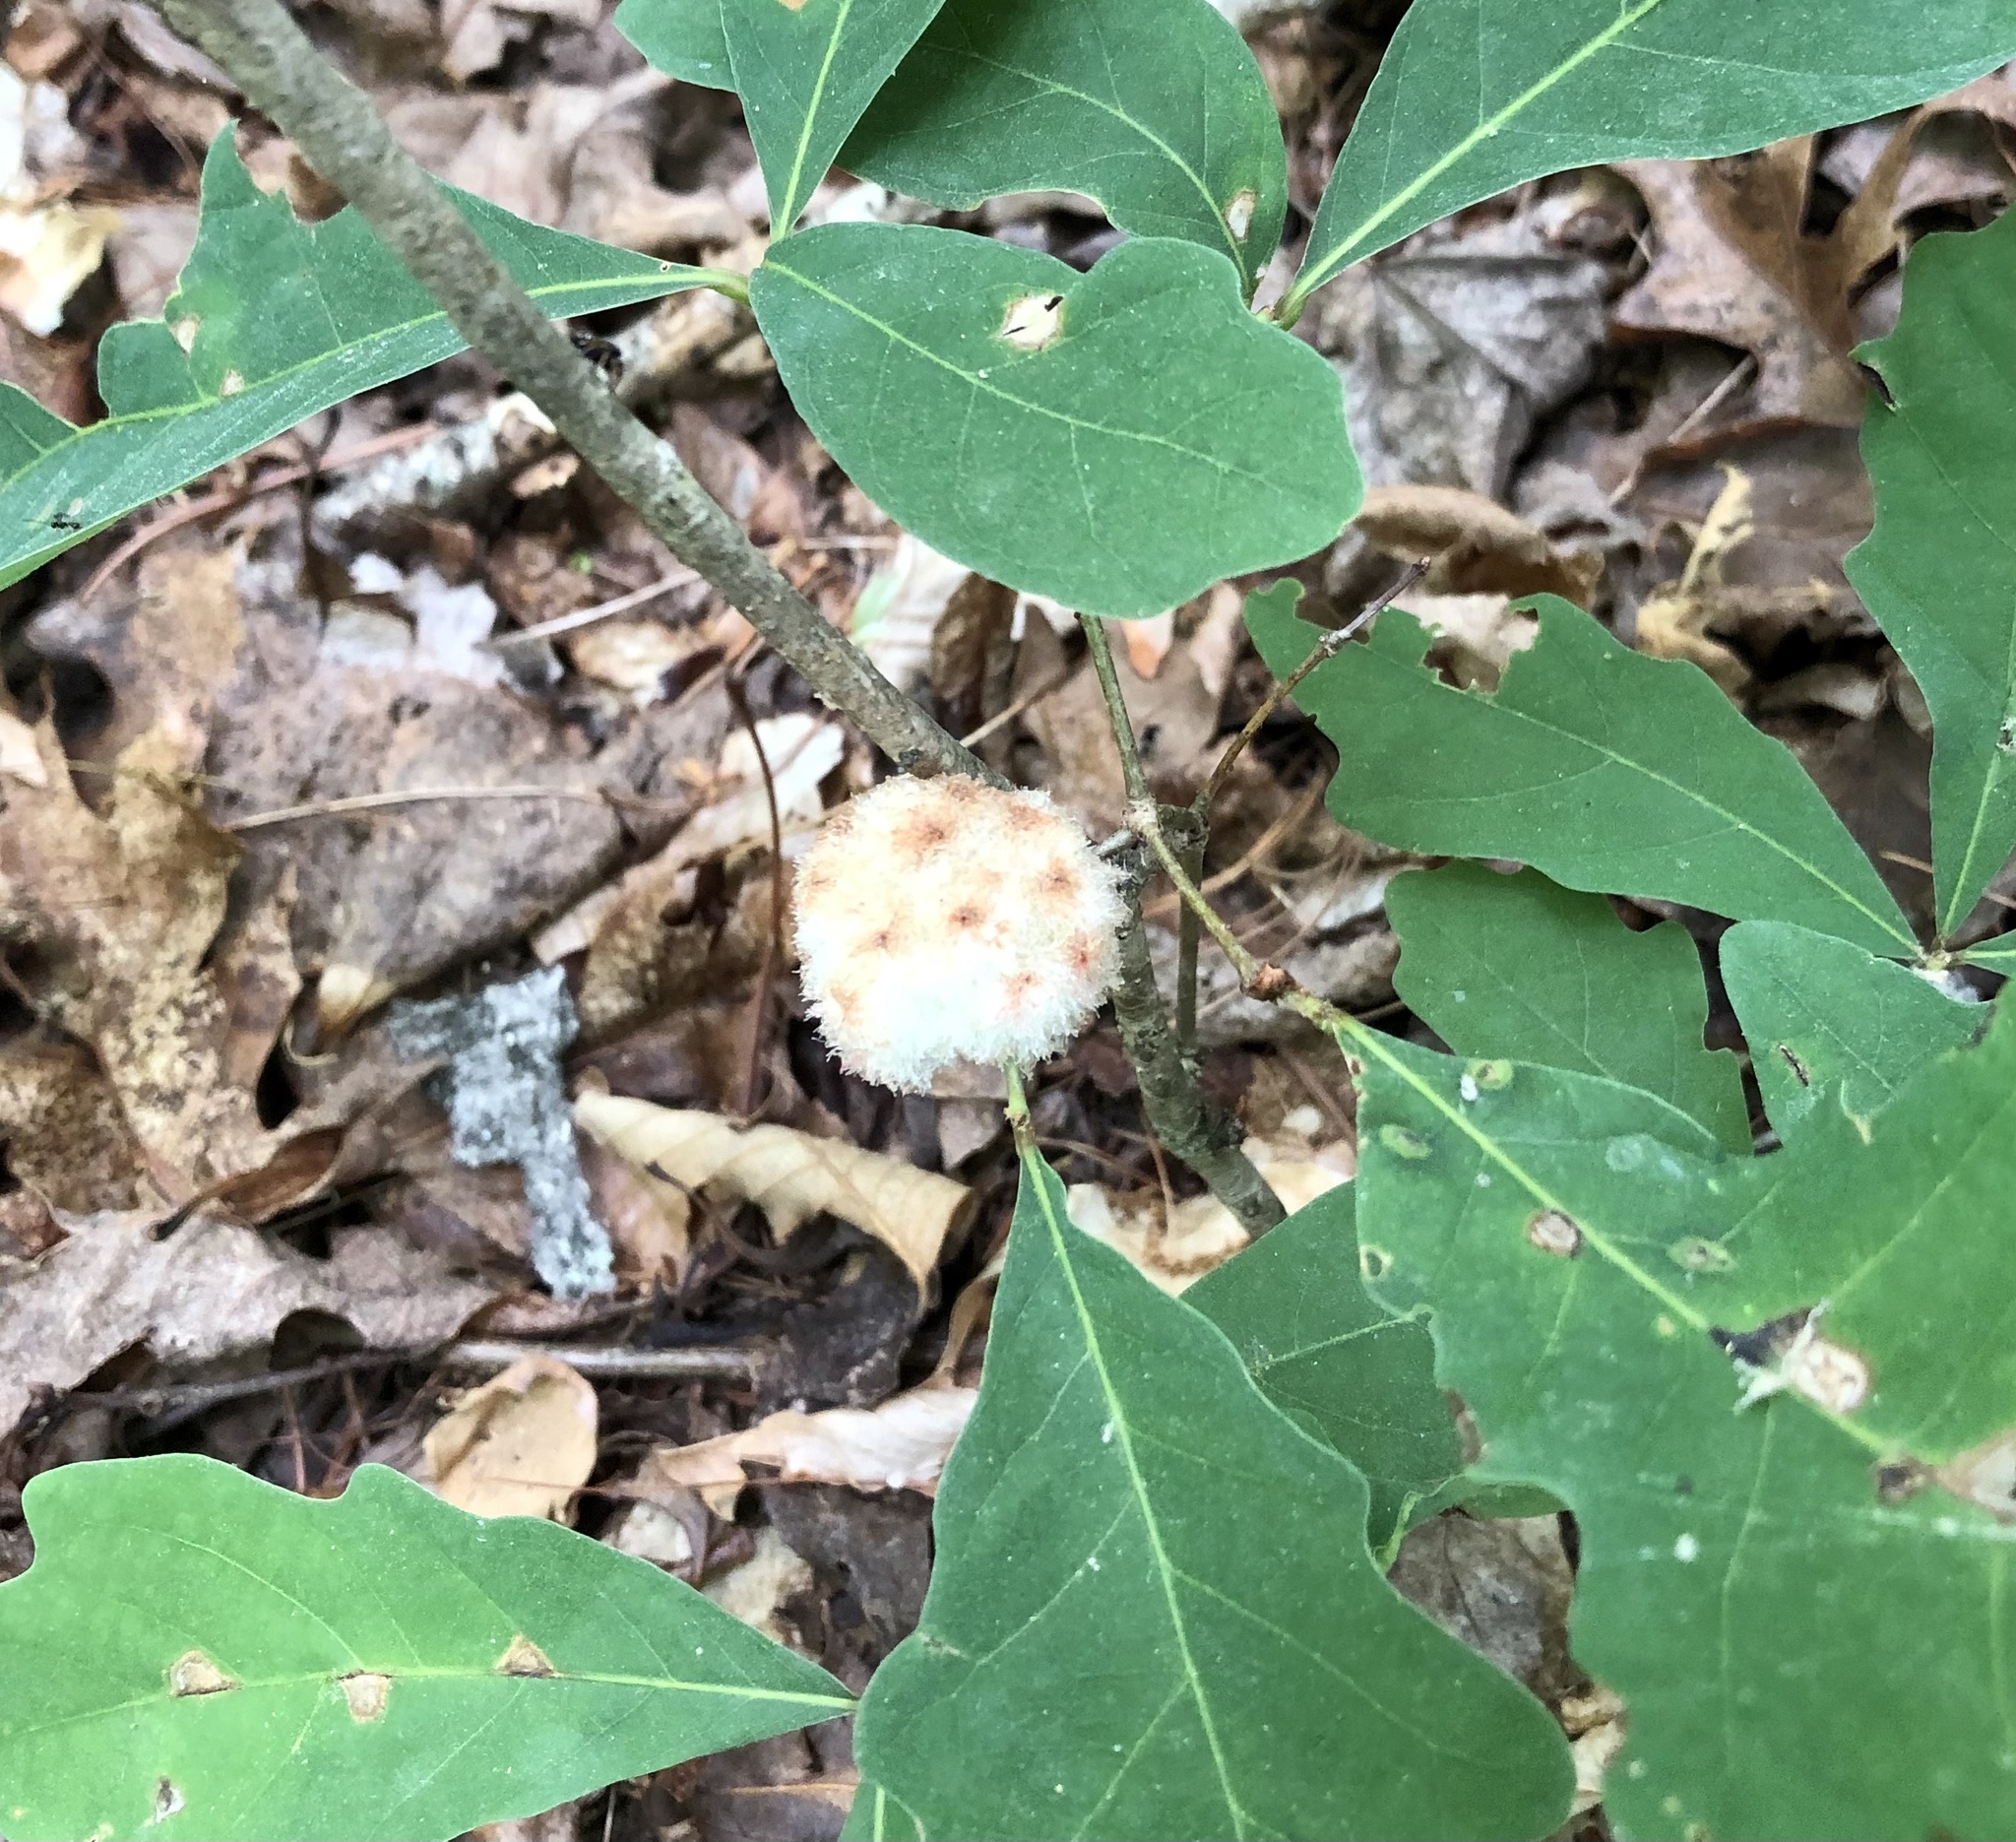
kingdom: Animalia
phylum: Arthropoda
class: Insecta
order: Hymenoptera
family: Cynipidae
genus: Callirhytis
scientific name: Callirhytis
